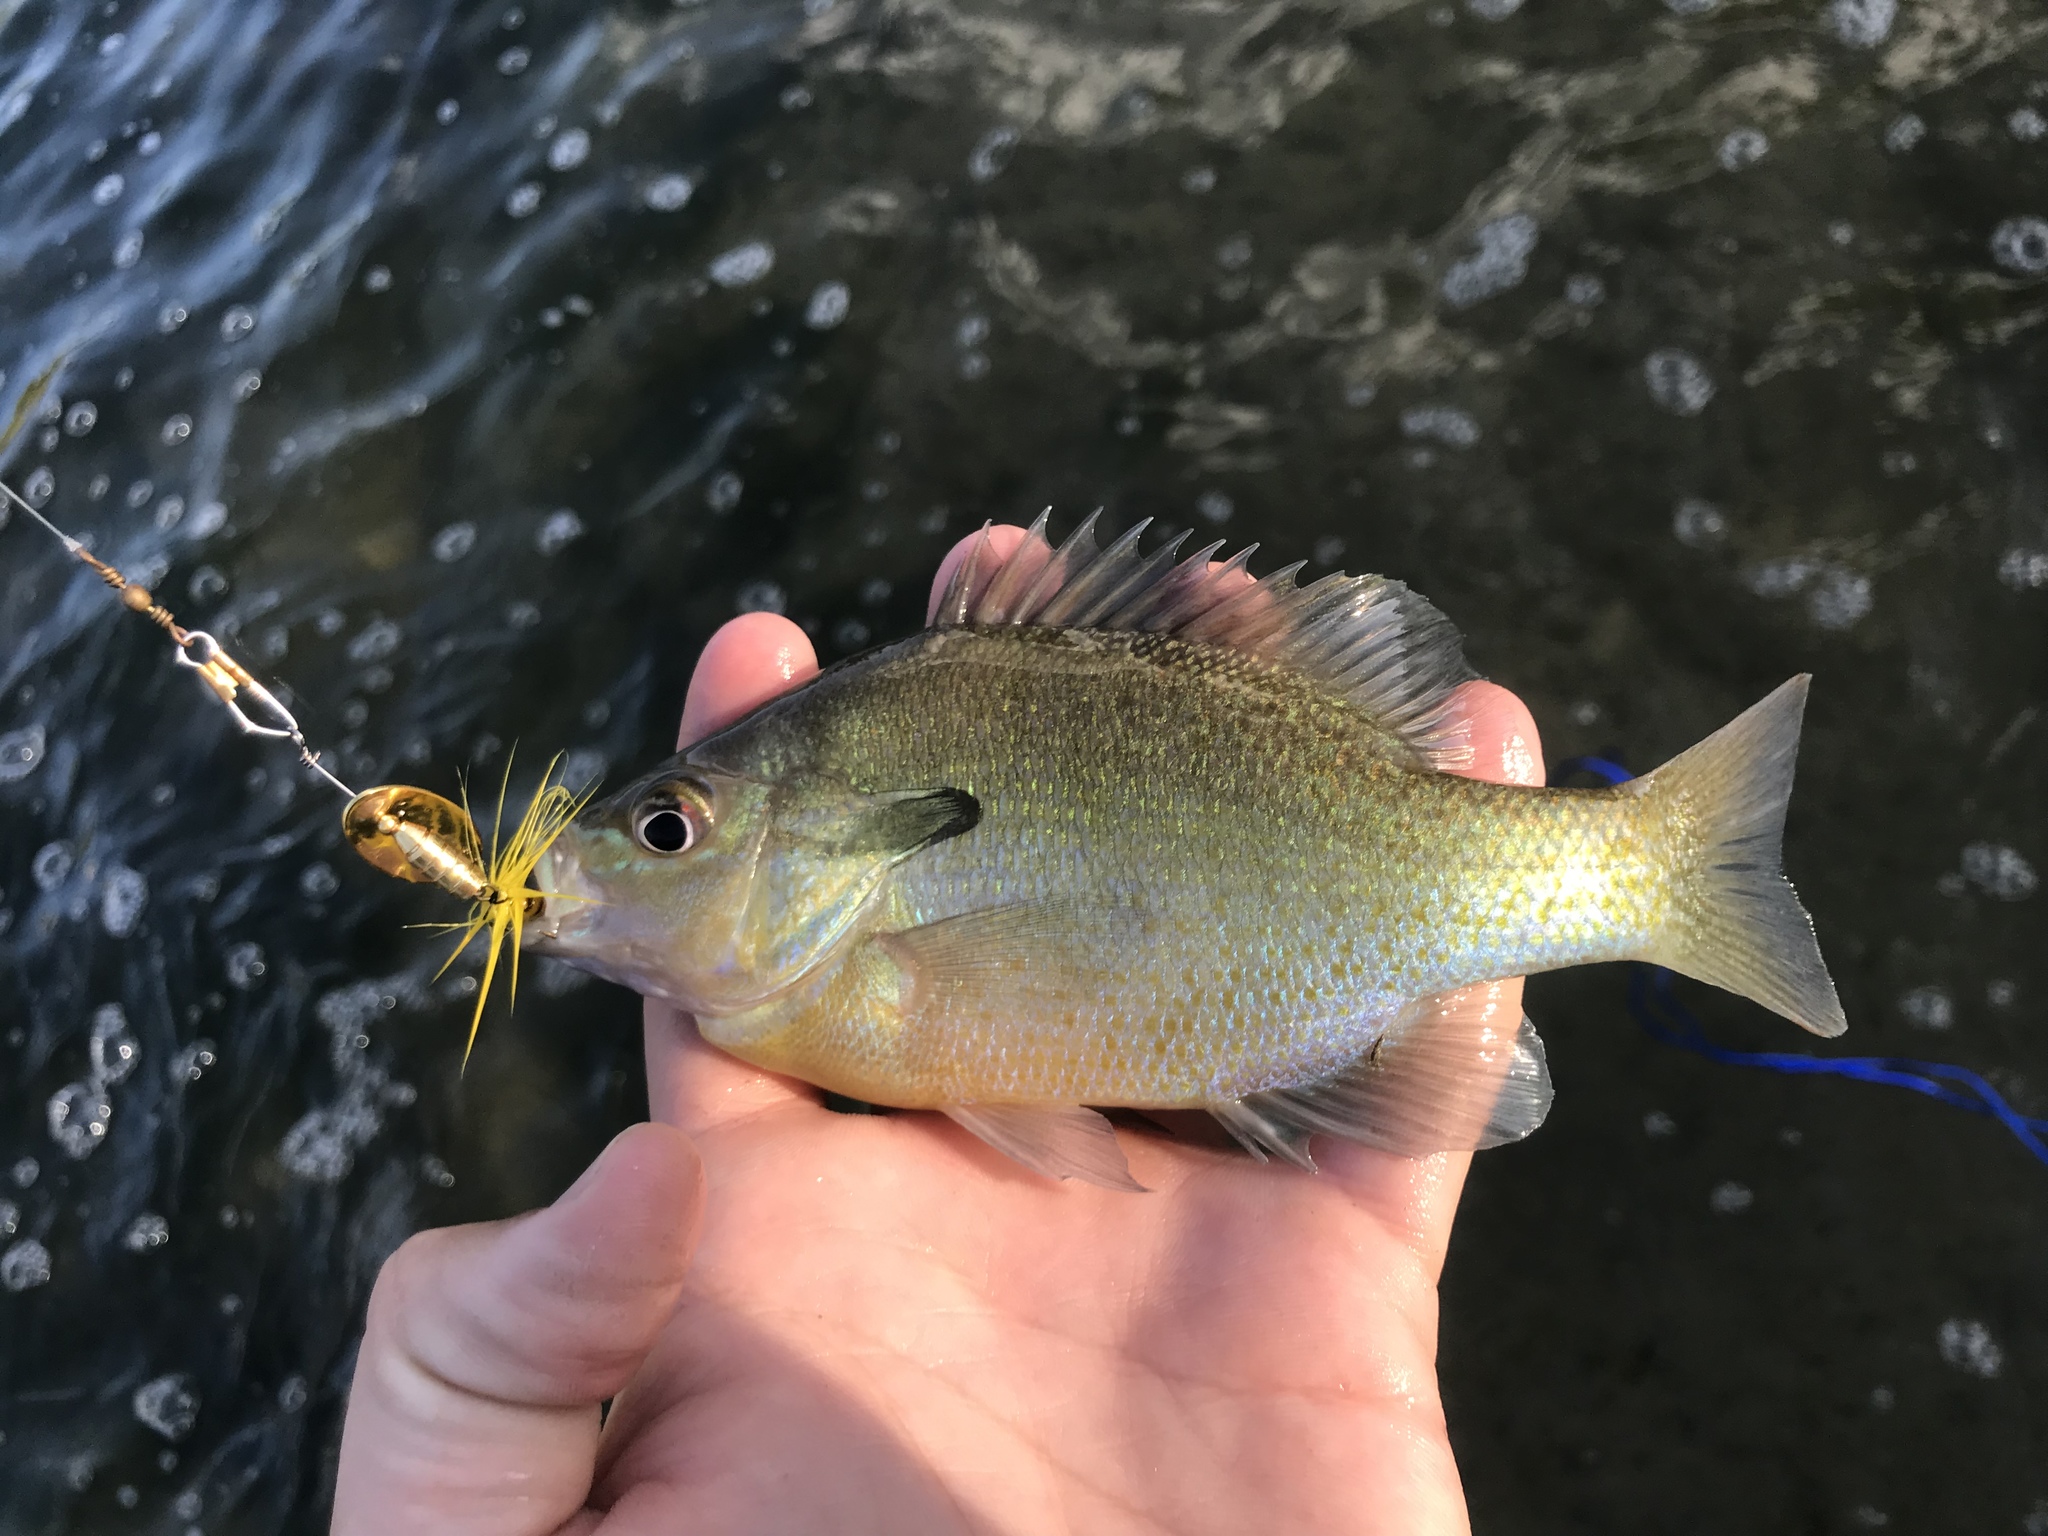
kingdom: Animalia
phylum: Chordata
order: Perciformes
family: Centrarchidae
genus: Lepomis
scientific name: Lepomis auritus
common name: Redbreast sunfish
